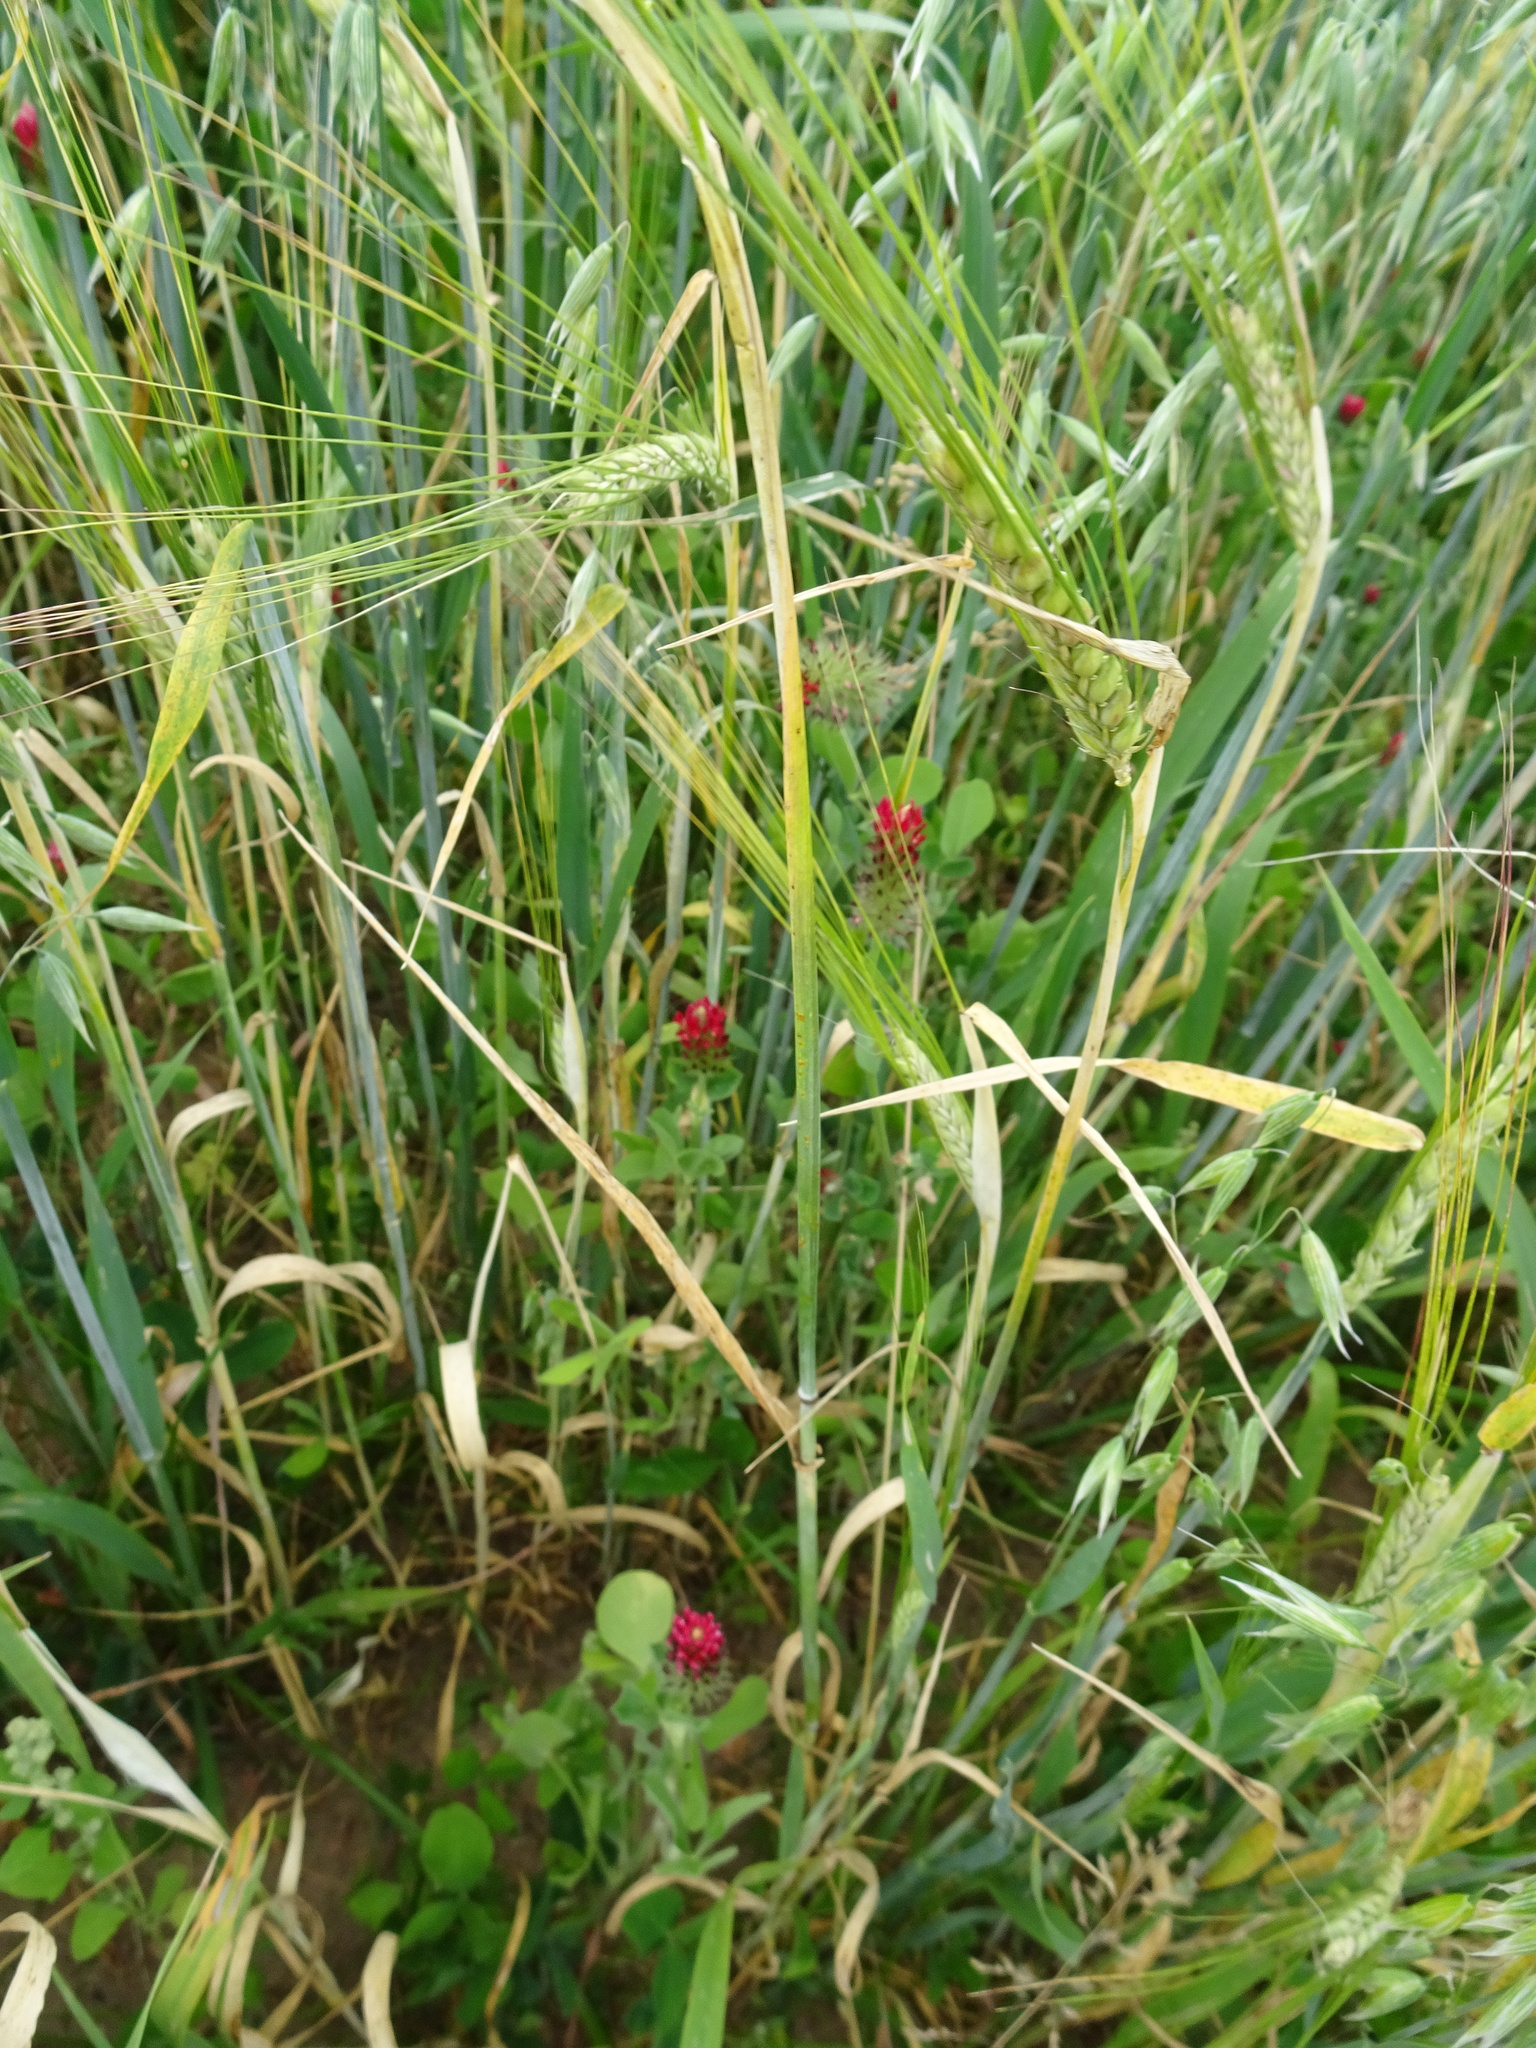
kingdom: Plantae
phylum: Tracheophyta
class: Magnoliopsida
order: Fabales
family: Fabaceae
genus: Trifolium
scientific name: Trifolium incarnatum
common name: Crimson clover
